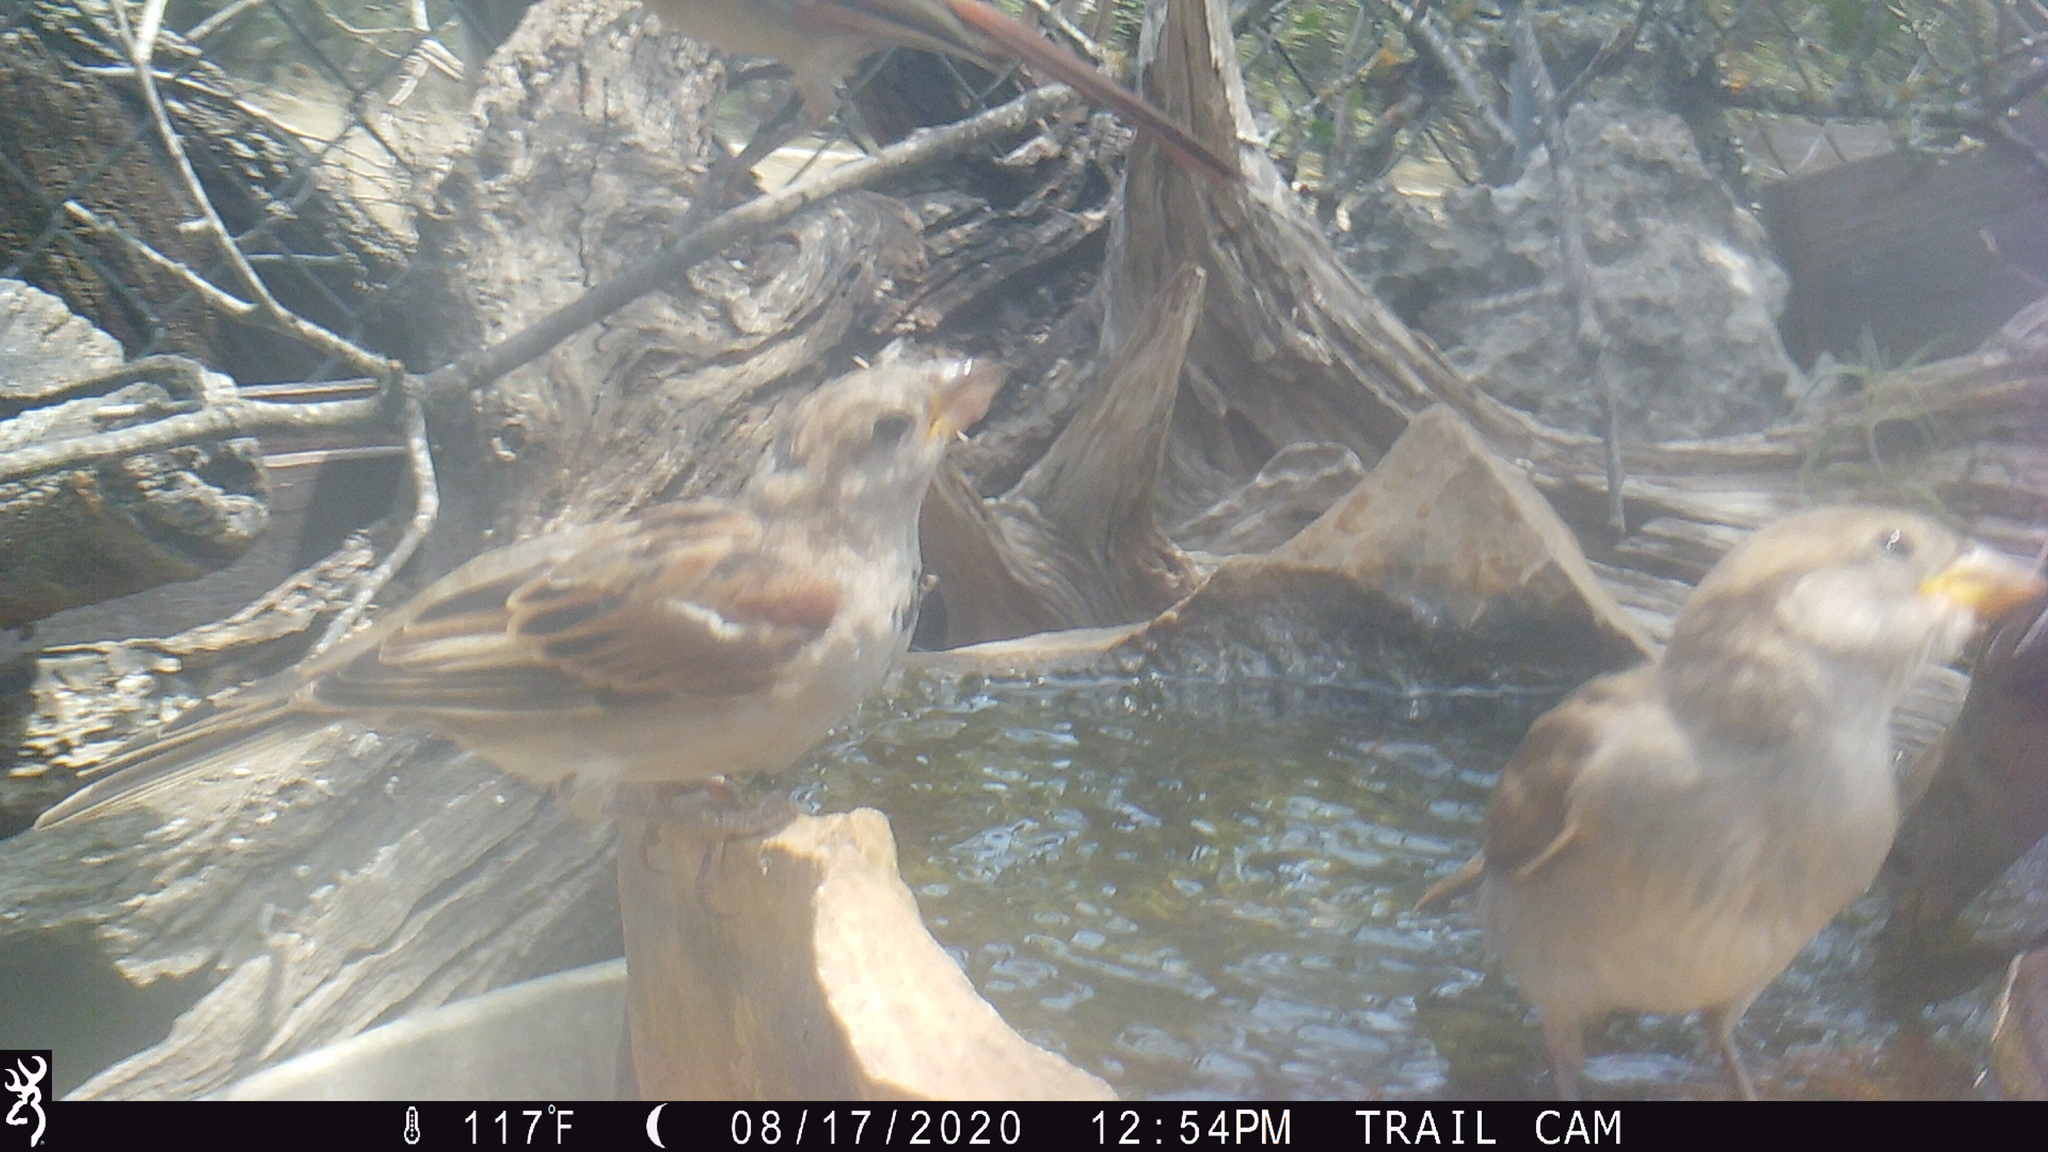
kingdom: Animalia
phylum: Chordata
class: Aves
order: Passeriformes
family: Passeridae
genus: Passer
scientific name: Passer domesticus
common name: House sparrow
